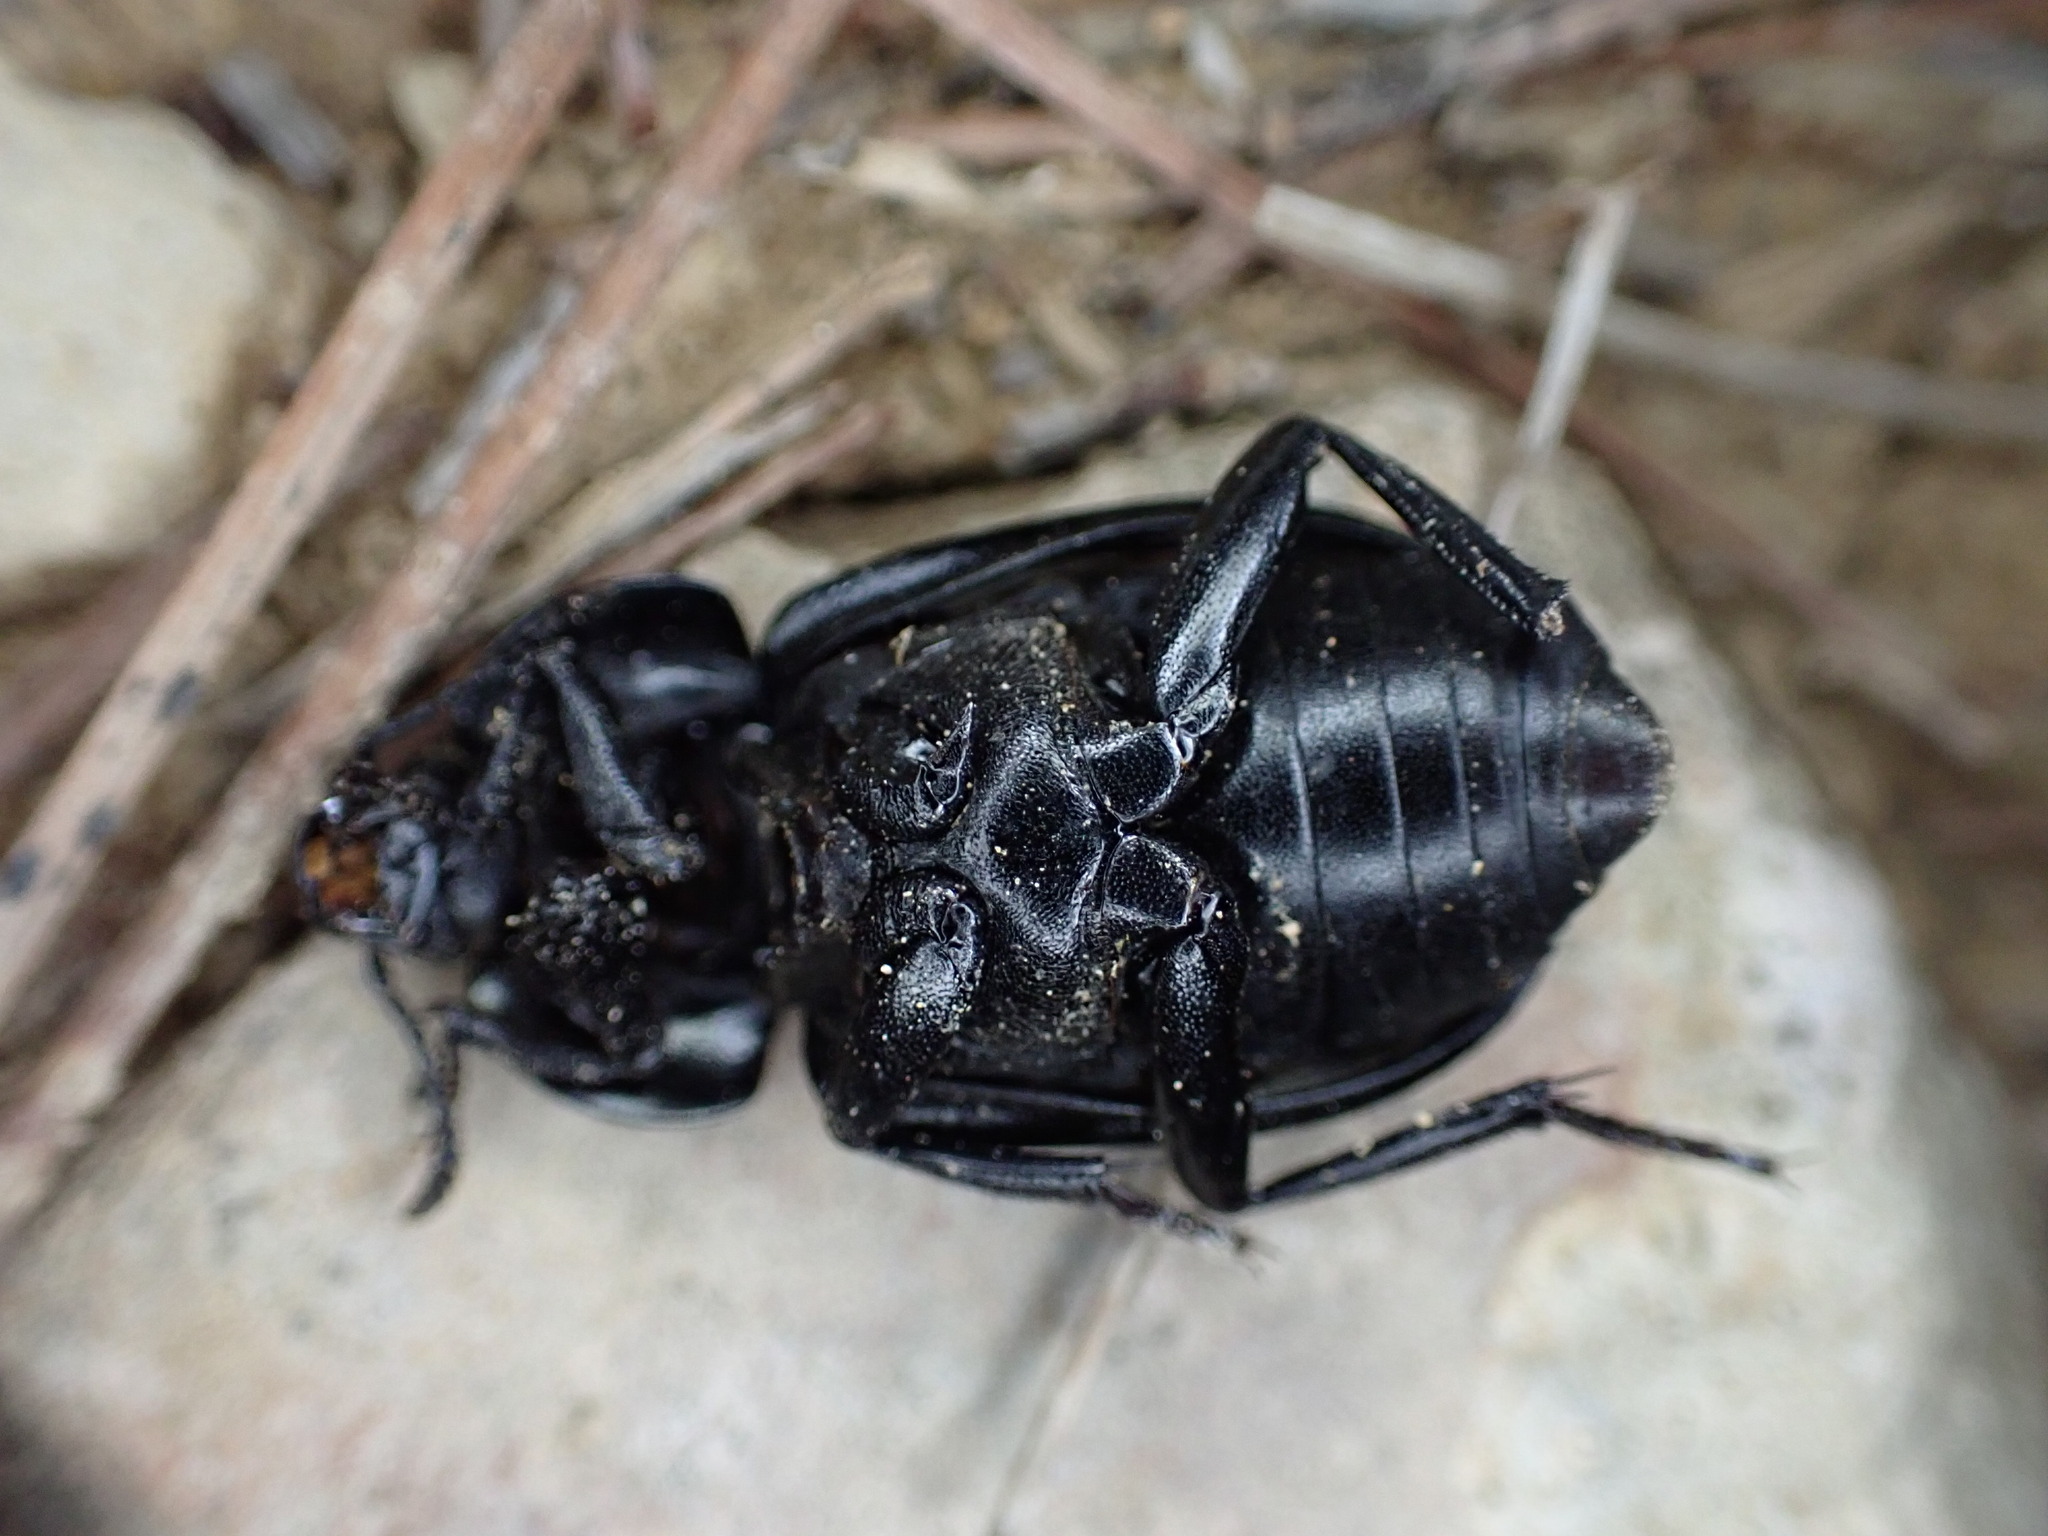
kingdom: Animalia
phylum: Arthropoda
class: Insecta
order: Coleoptera
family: Staphylinidae
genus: Silpha
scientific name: Silpha olivieri
